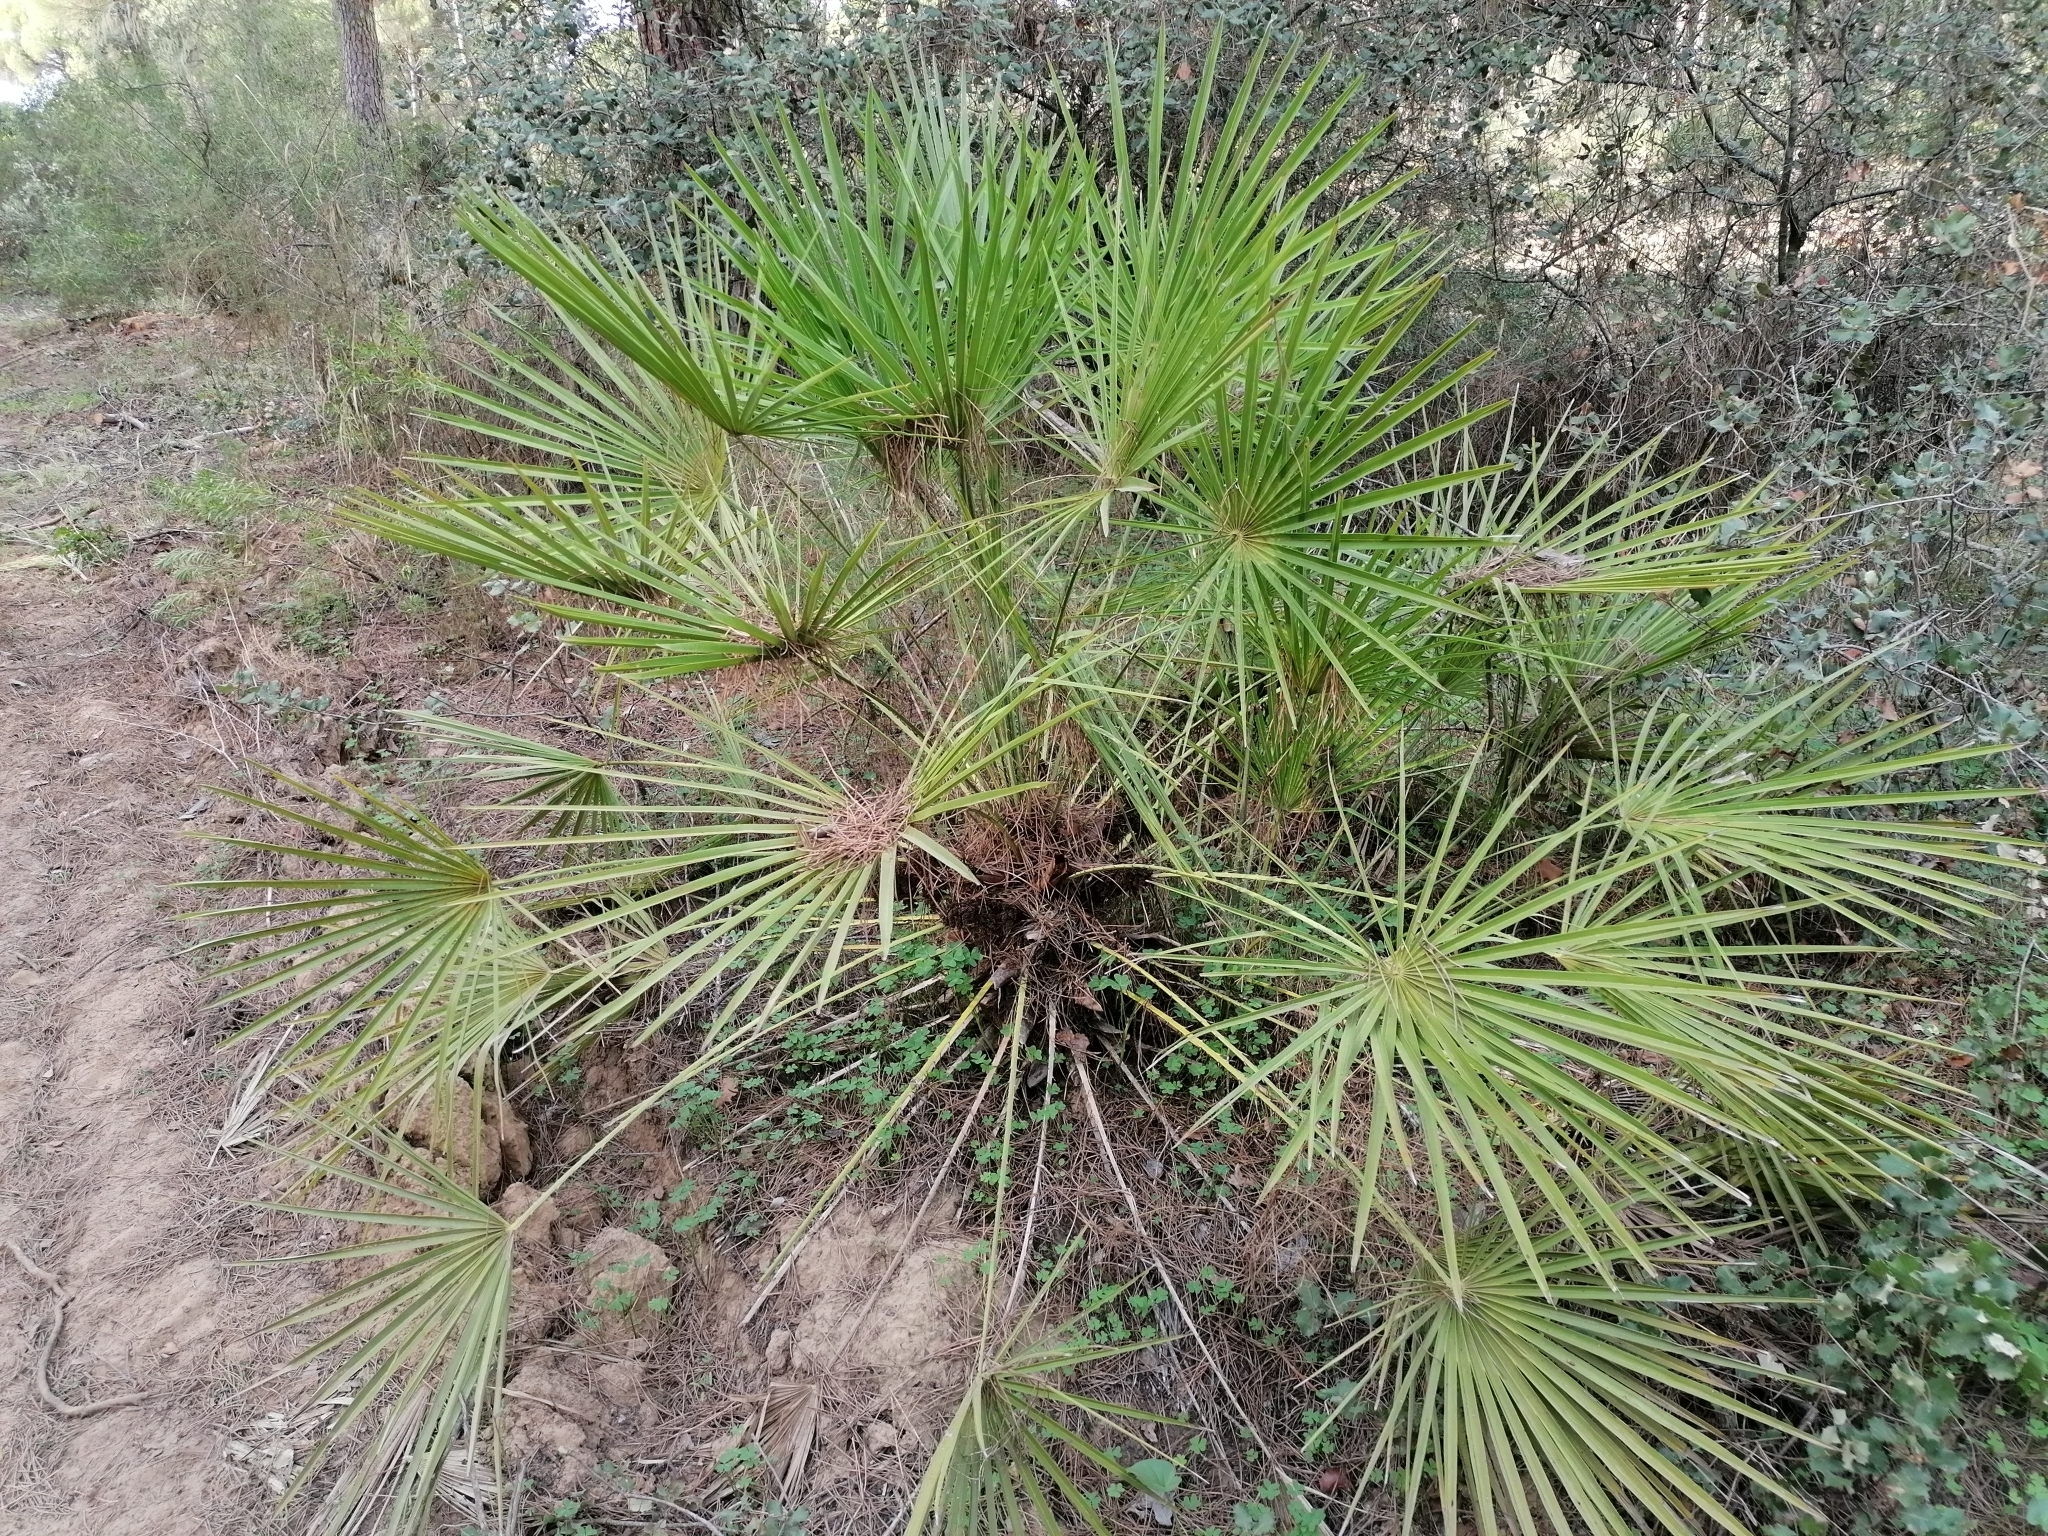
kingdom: Plantae
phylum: Tracheophyta
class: Liliopsida
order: Arecales
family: Arecaceae
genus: Chamaerops
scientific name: Chamaerops humilis
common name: Dwarf fan palm
